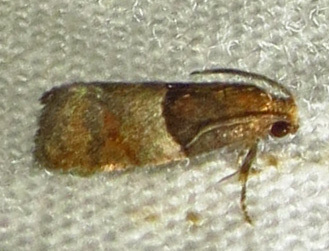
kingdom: Animalia
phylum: Arthropoda
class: Insecta
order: Lepidoptera
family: Tortricidae
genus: Larisa
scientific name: Larisa subsolana
